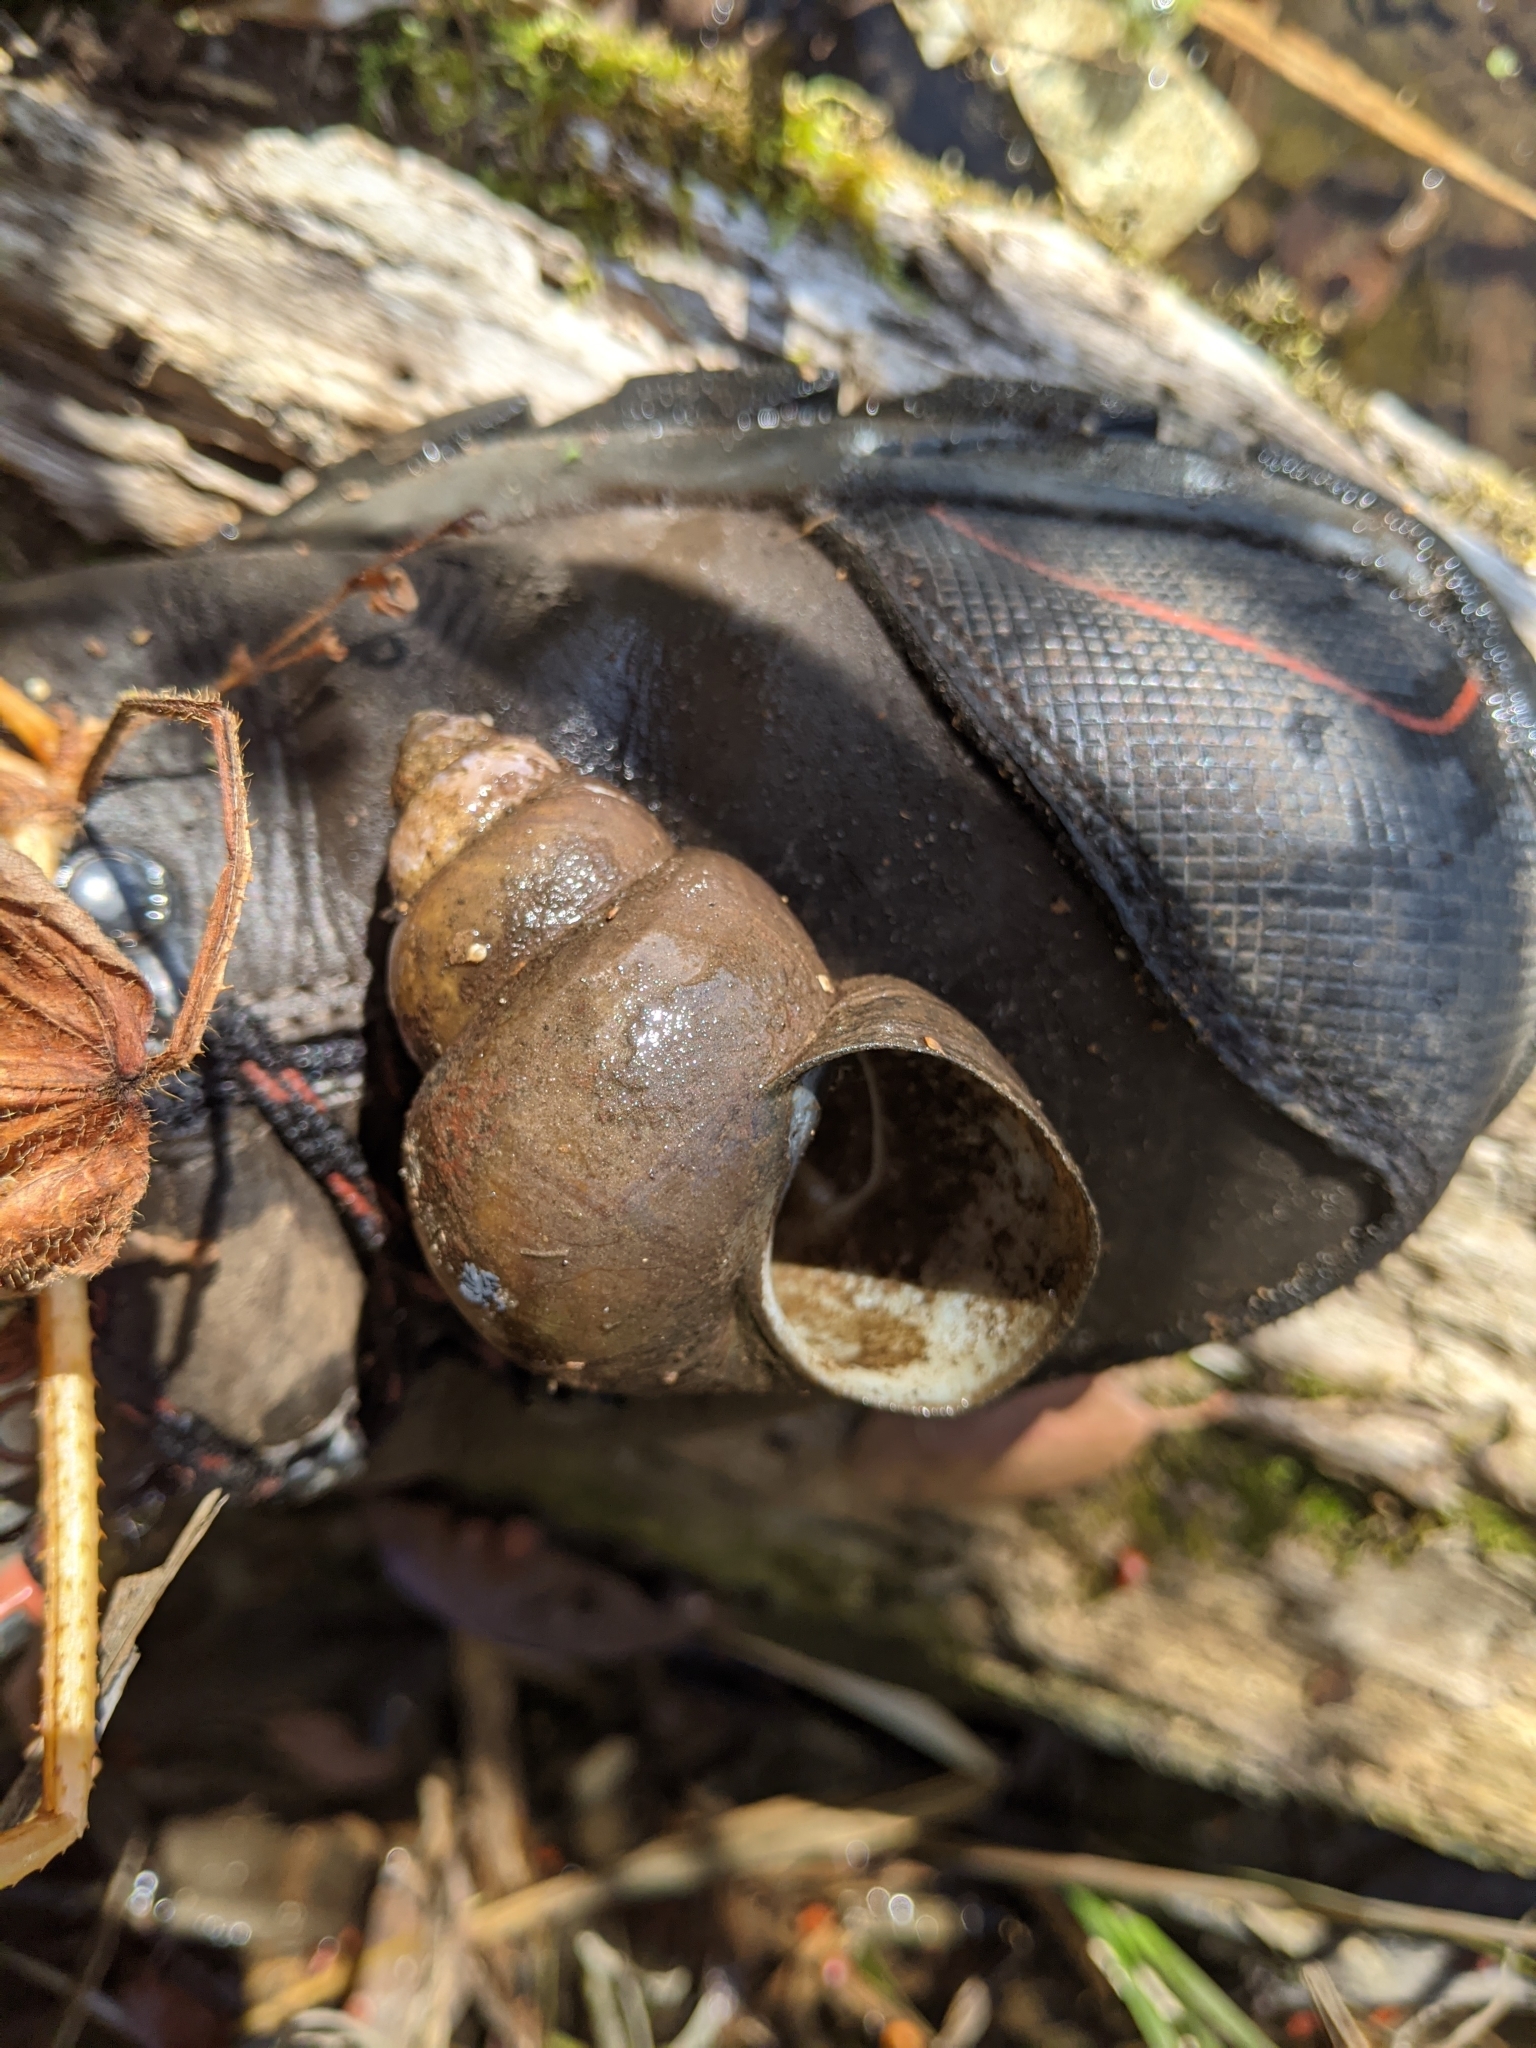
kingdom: Animalia
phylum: Mollusca
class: Gastropoda
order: Architaenioglossa
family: Viviparidae
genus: Cipangopaludina
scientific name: Cipangopaludina chinensis
